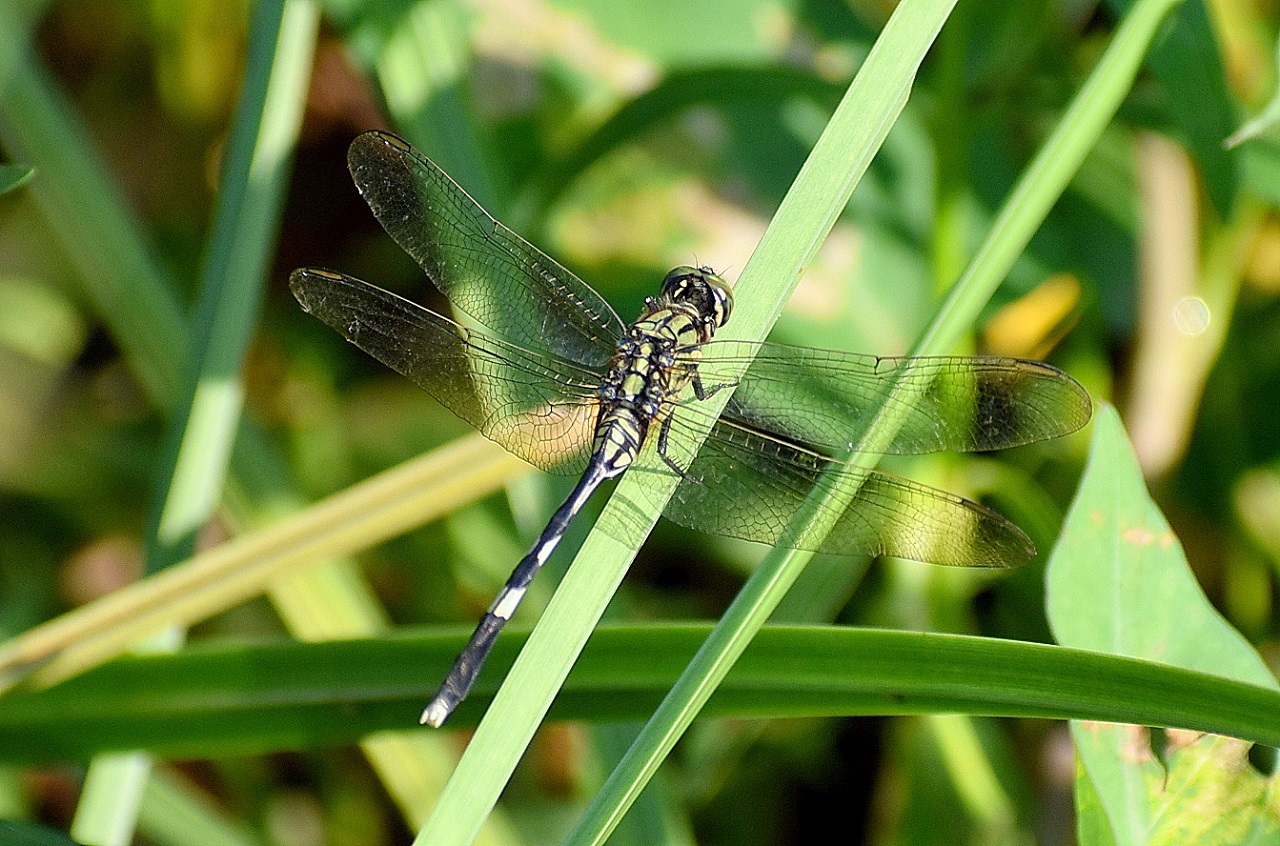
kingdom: Animalia
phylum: Arthropoda
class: Insecta
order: Odonata
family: Libellulidae
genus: Orthetrum
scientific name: Orthetrum sabina
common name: Slender skimmer
